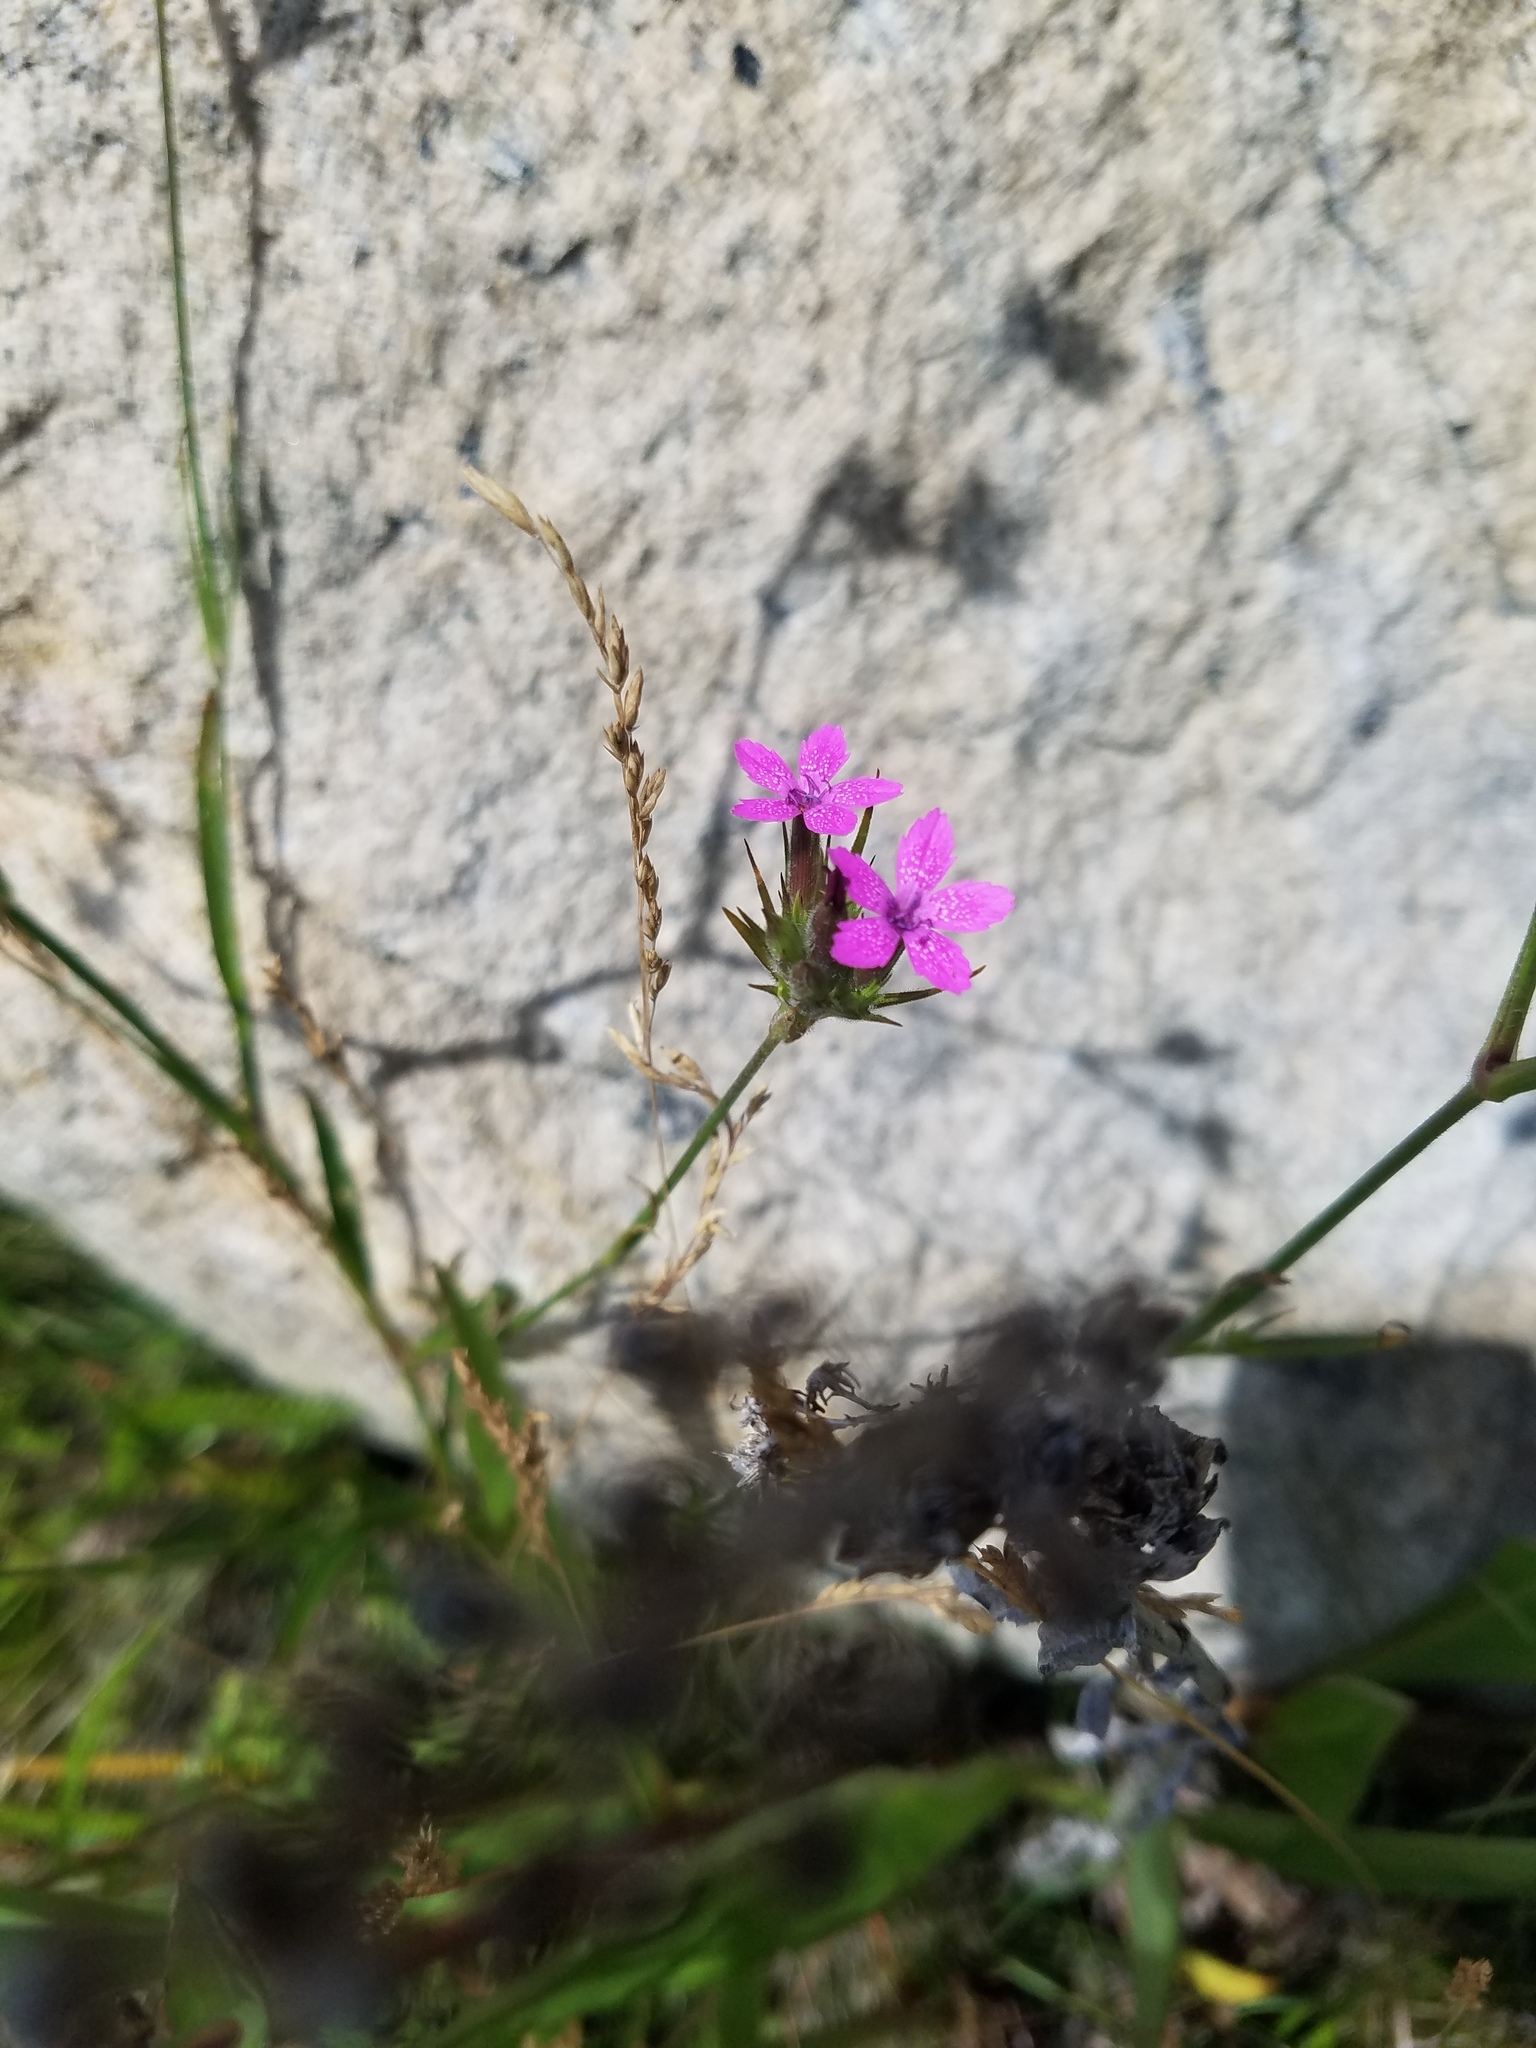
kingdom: Plantae
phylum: Tracheophyta
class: Magnoliopsida
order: Caryophyllales
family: Caryophyllaceae
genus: Dianthus
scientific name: Dianthus armeria
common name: Deptford pink
